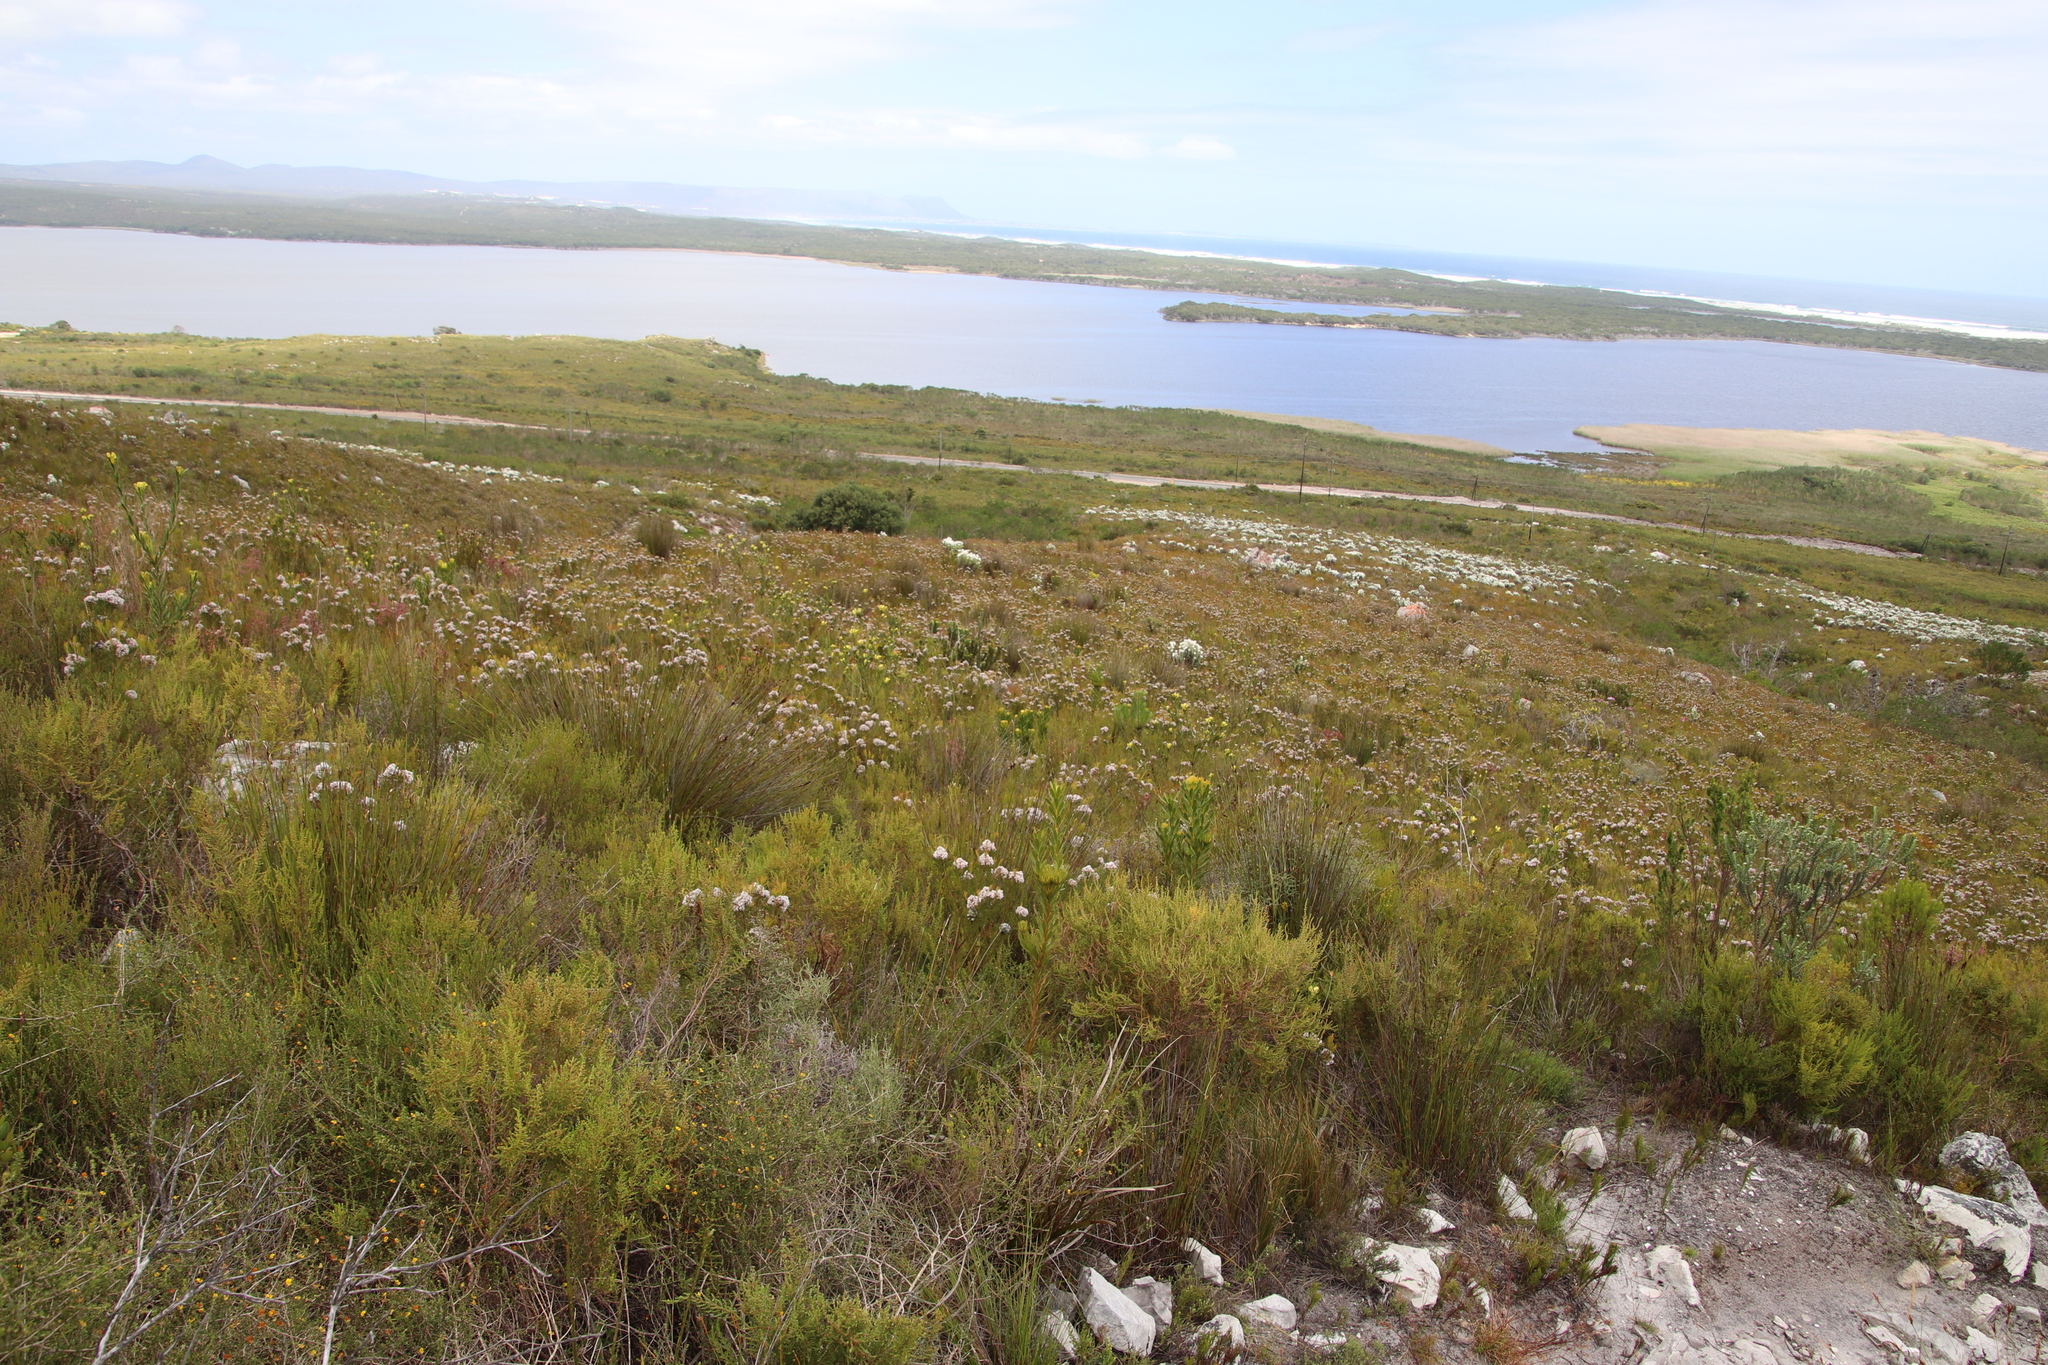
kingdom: Plantae
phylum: Tracheophyta
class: Magnoliopsida
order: Proteales
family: Proteaceae
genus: Serruria
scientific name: Serruria ascendens
